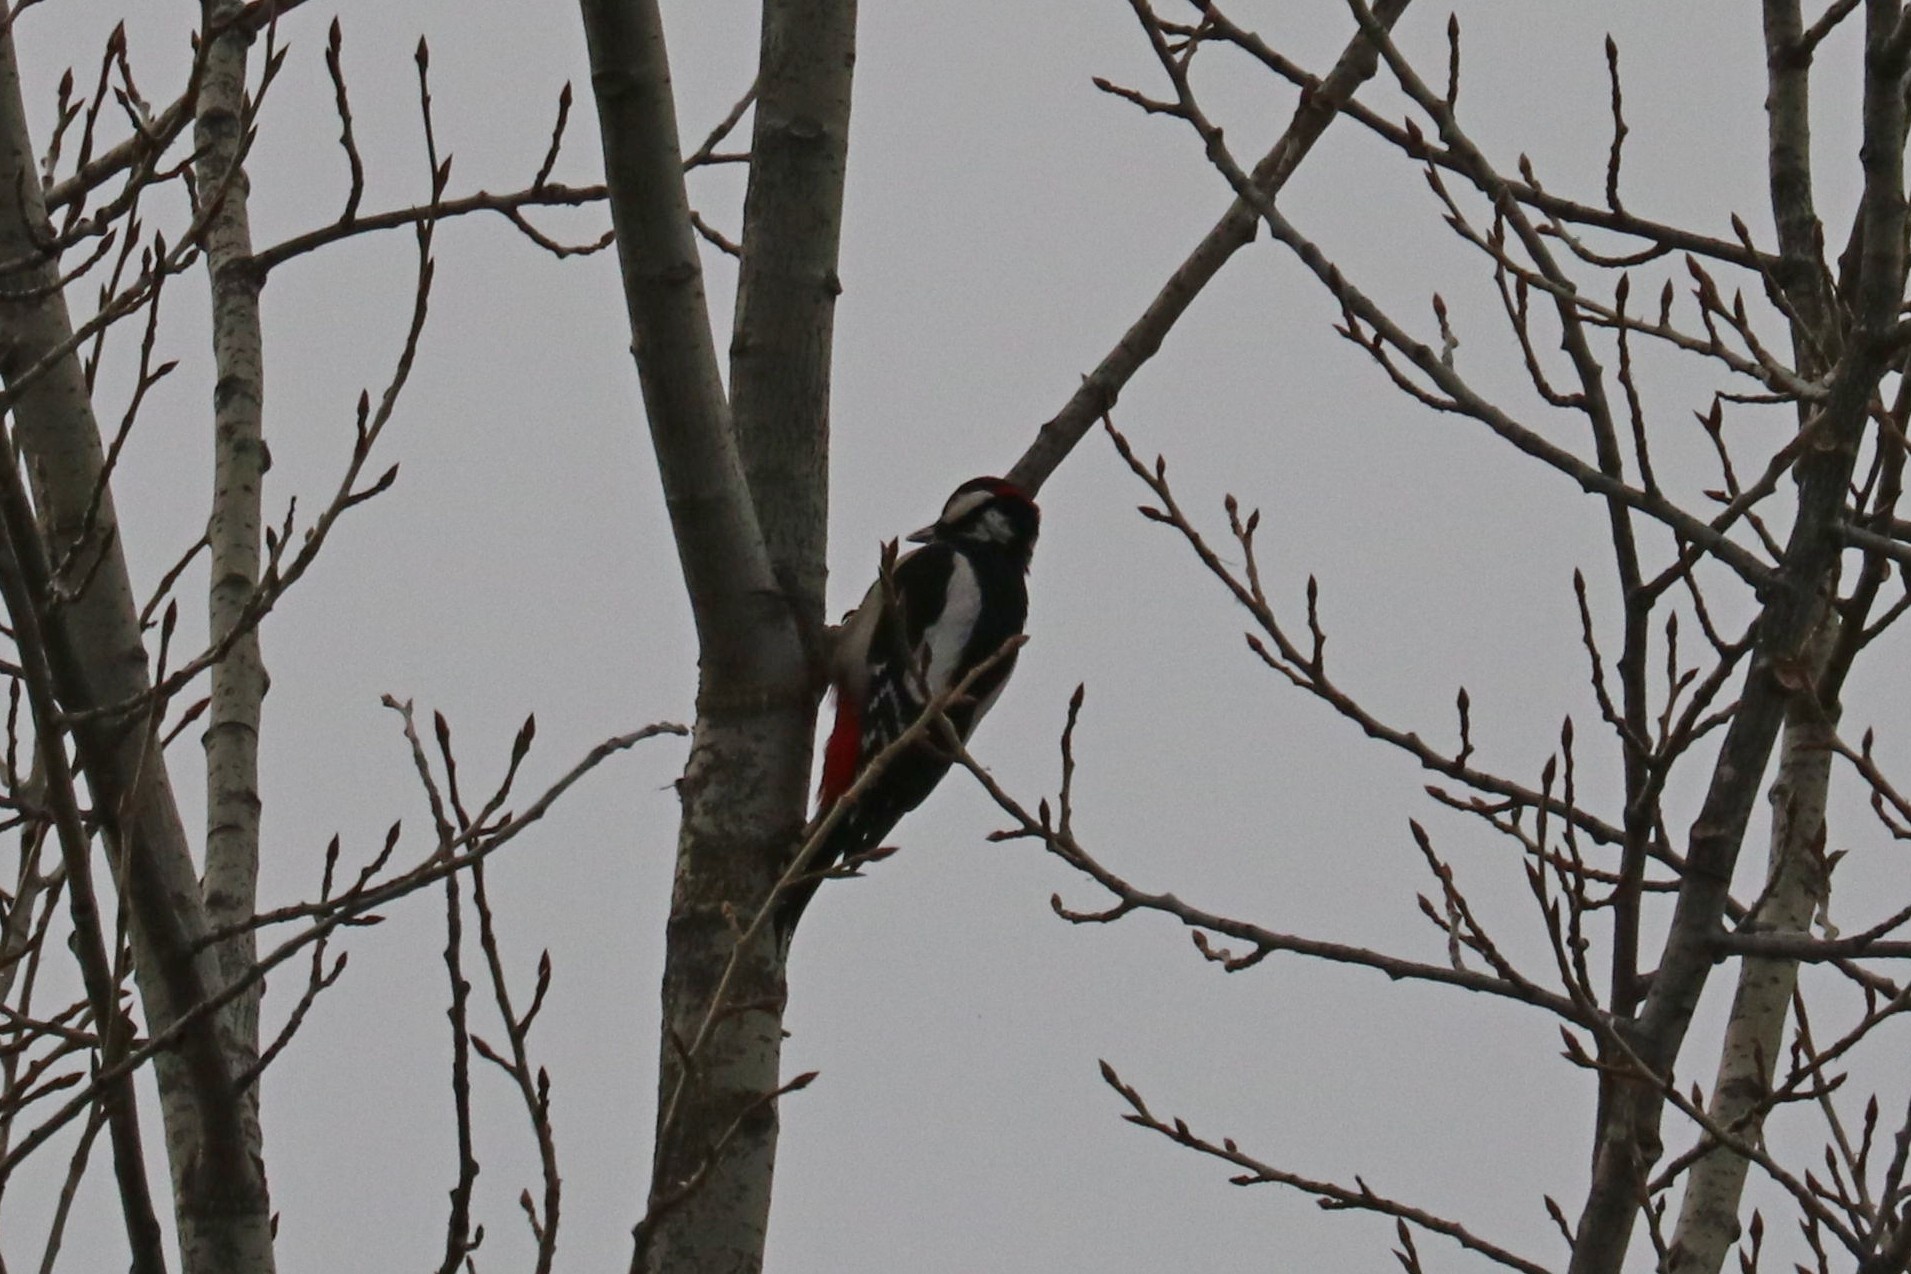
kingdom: Animalia
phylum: Chordata
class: Aves
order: Piciformes
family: Picidae
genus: Dendrocopos
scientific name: Dendrocopos major
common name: Great spotted woodpecker
